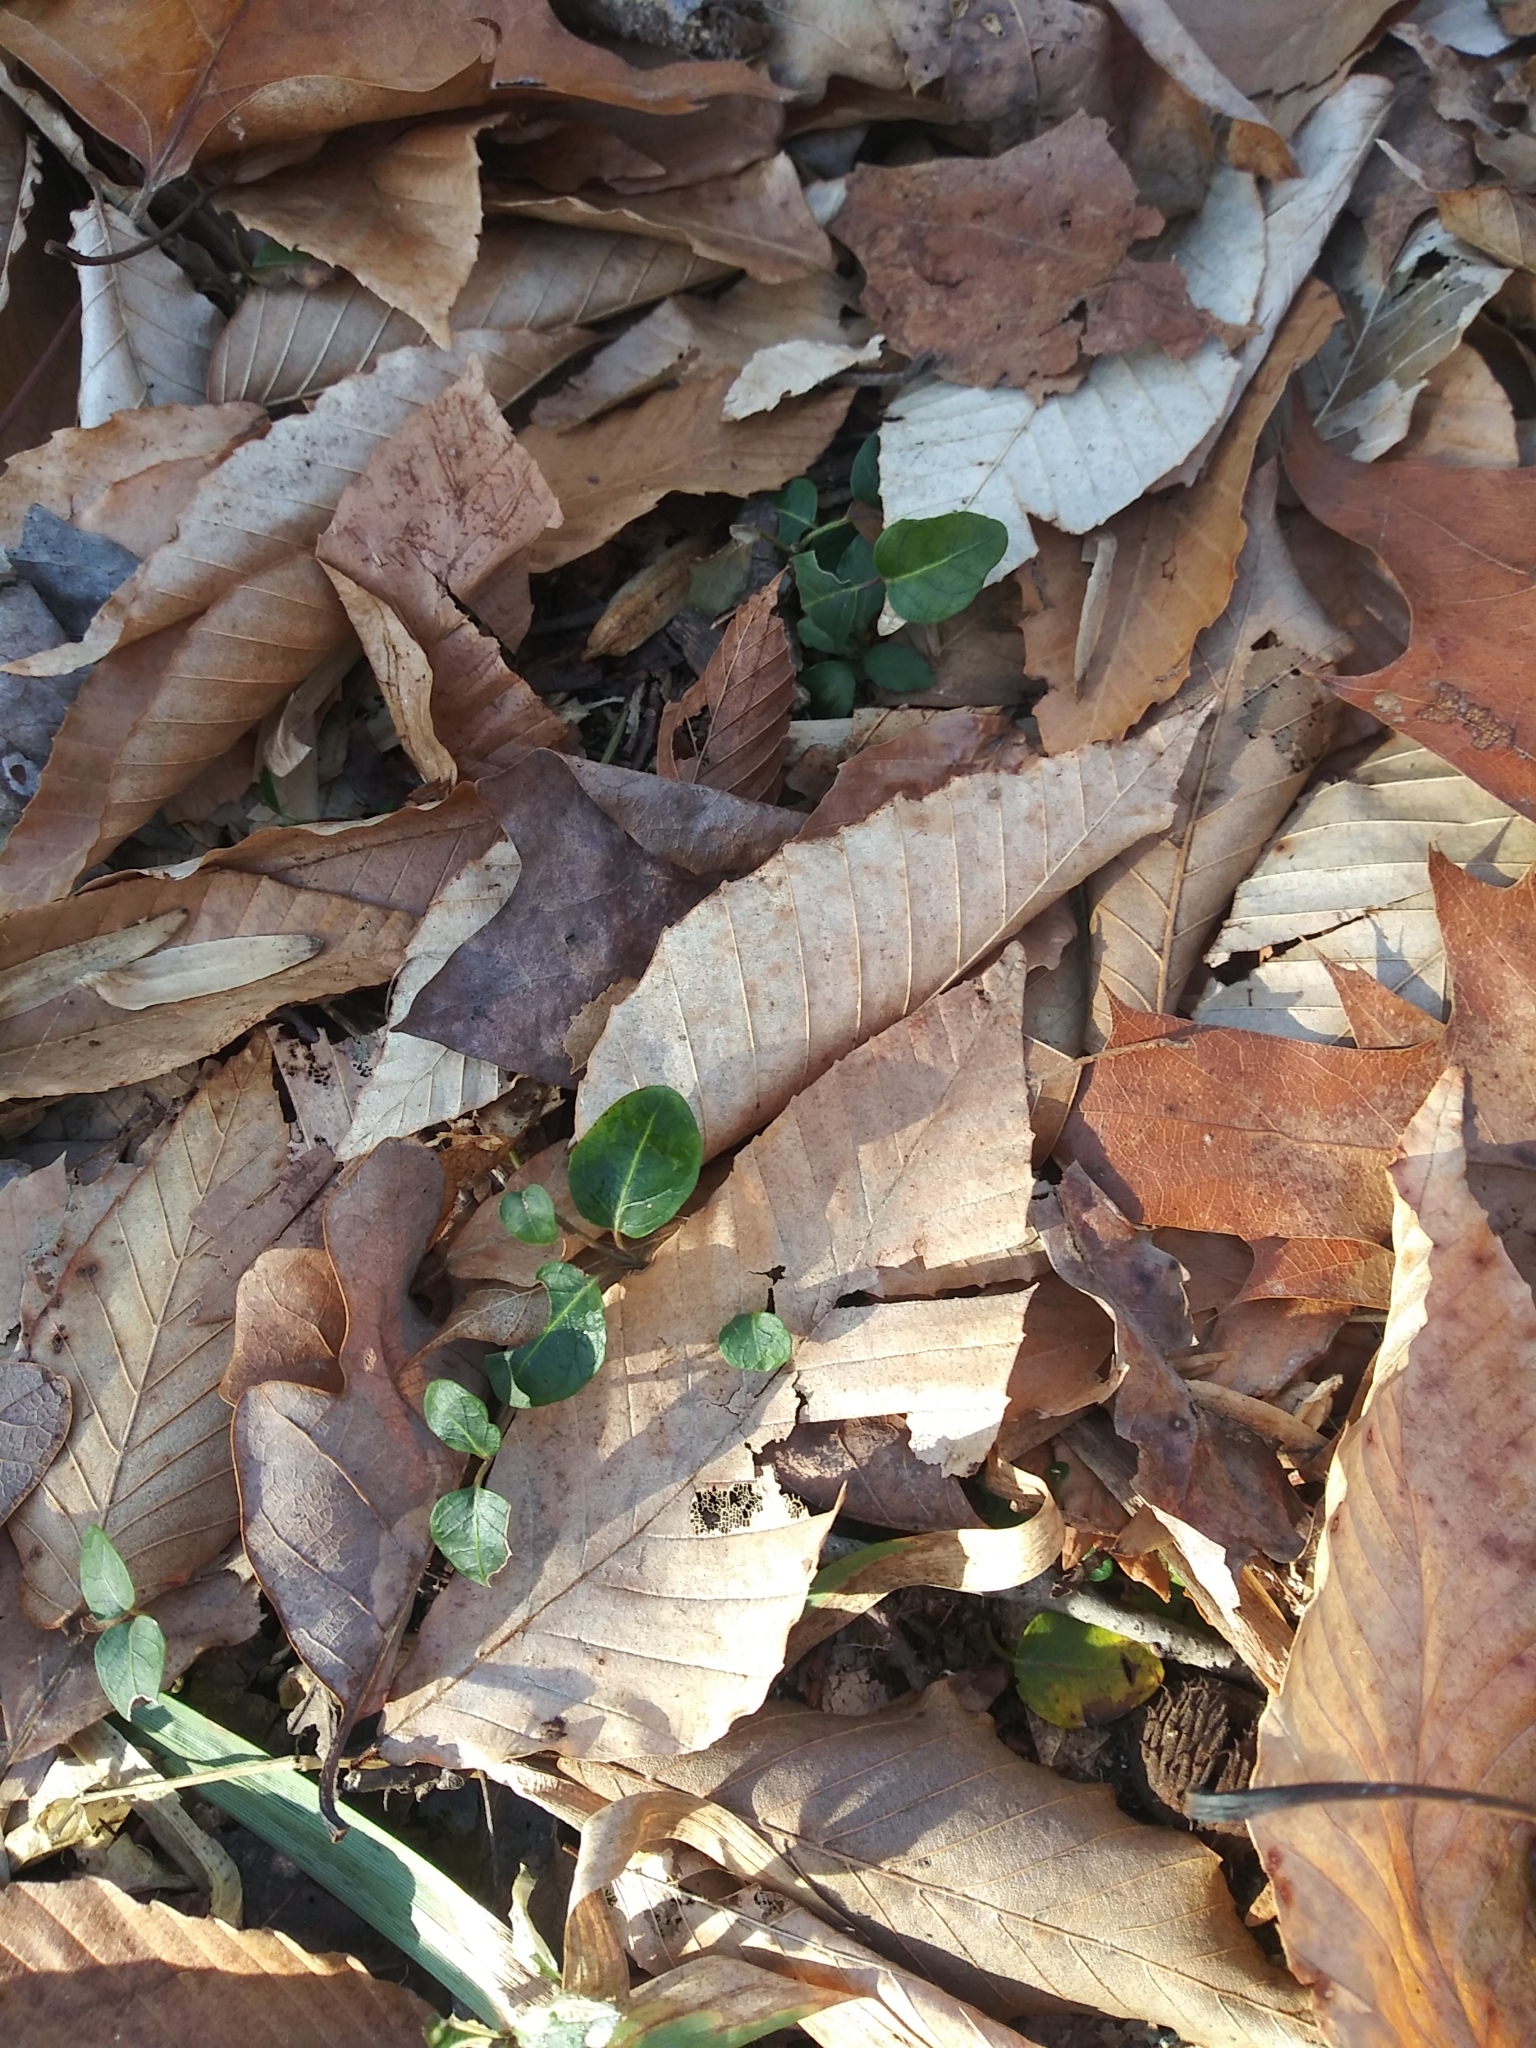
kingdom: Plantae
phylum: Tracheophyta
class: Magnoliopsida
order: Gentianales
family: Rubiaceae
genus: Mitchella
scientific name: Mitchella repens
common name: Partridge-berry
